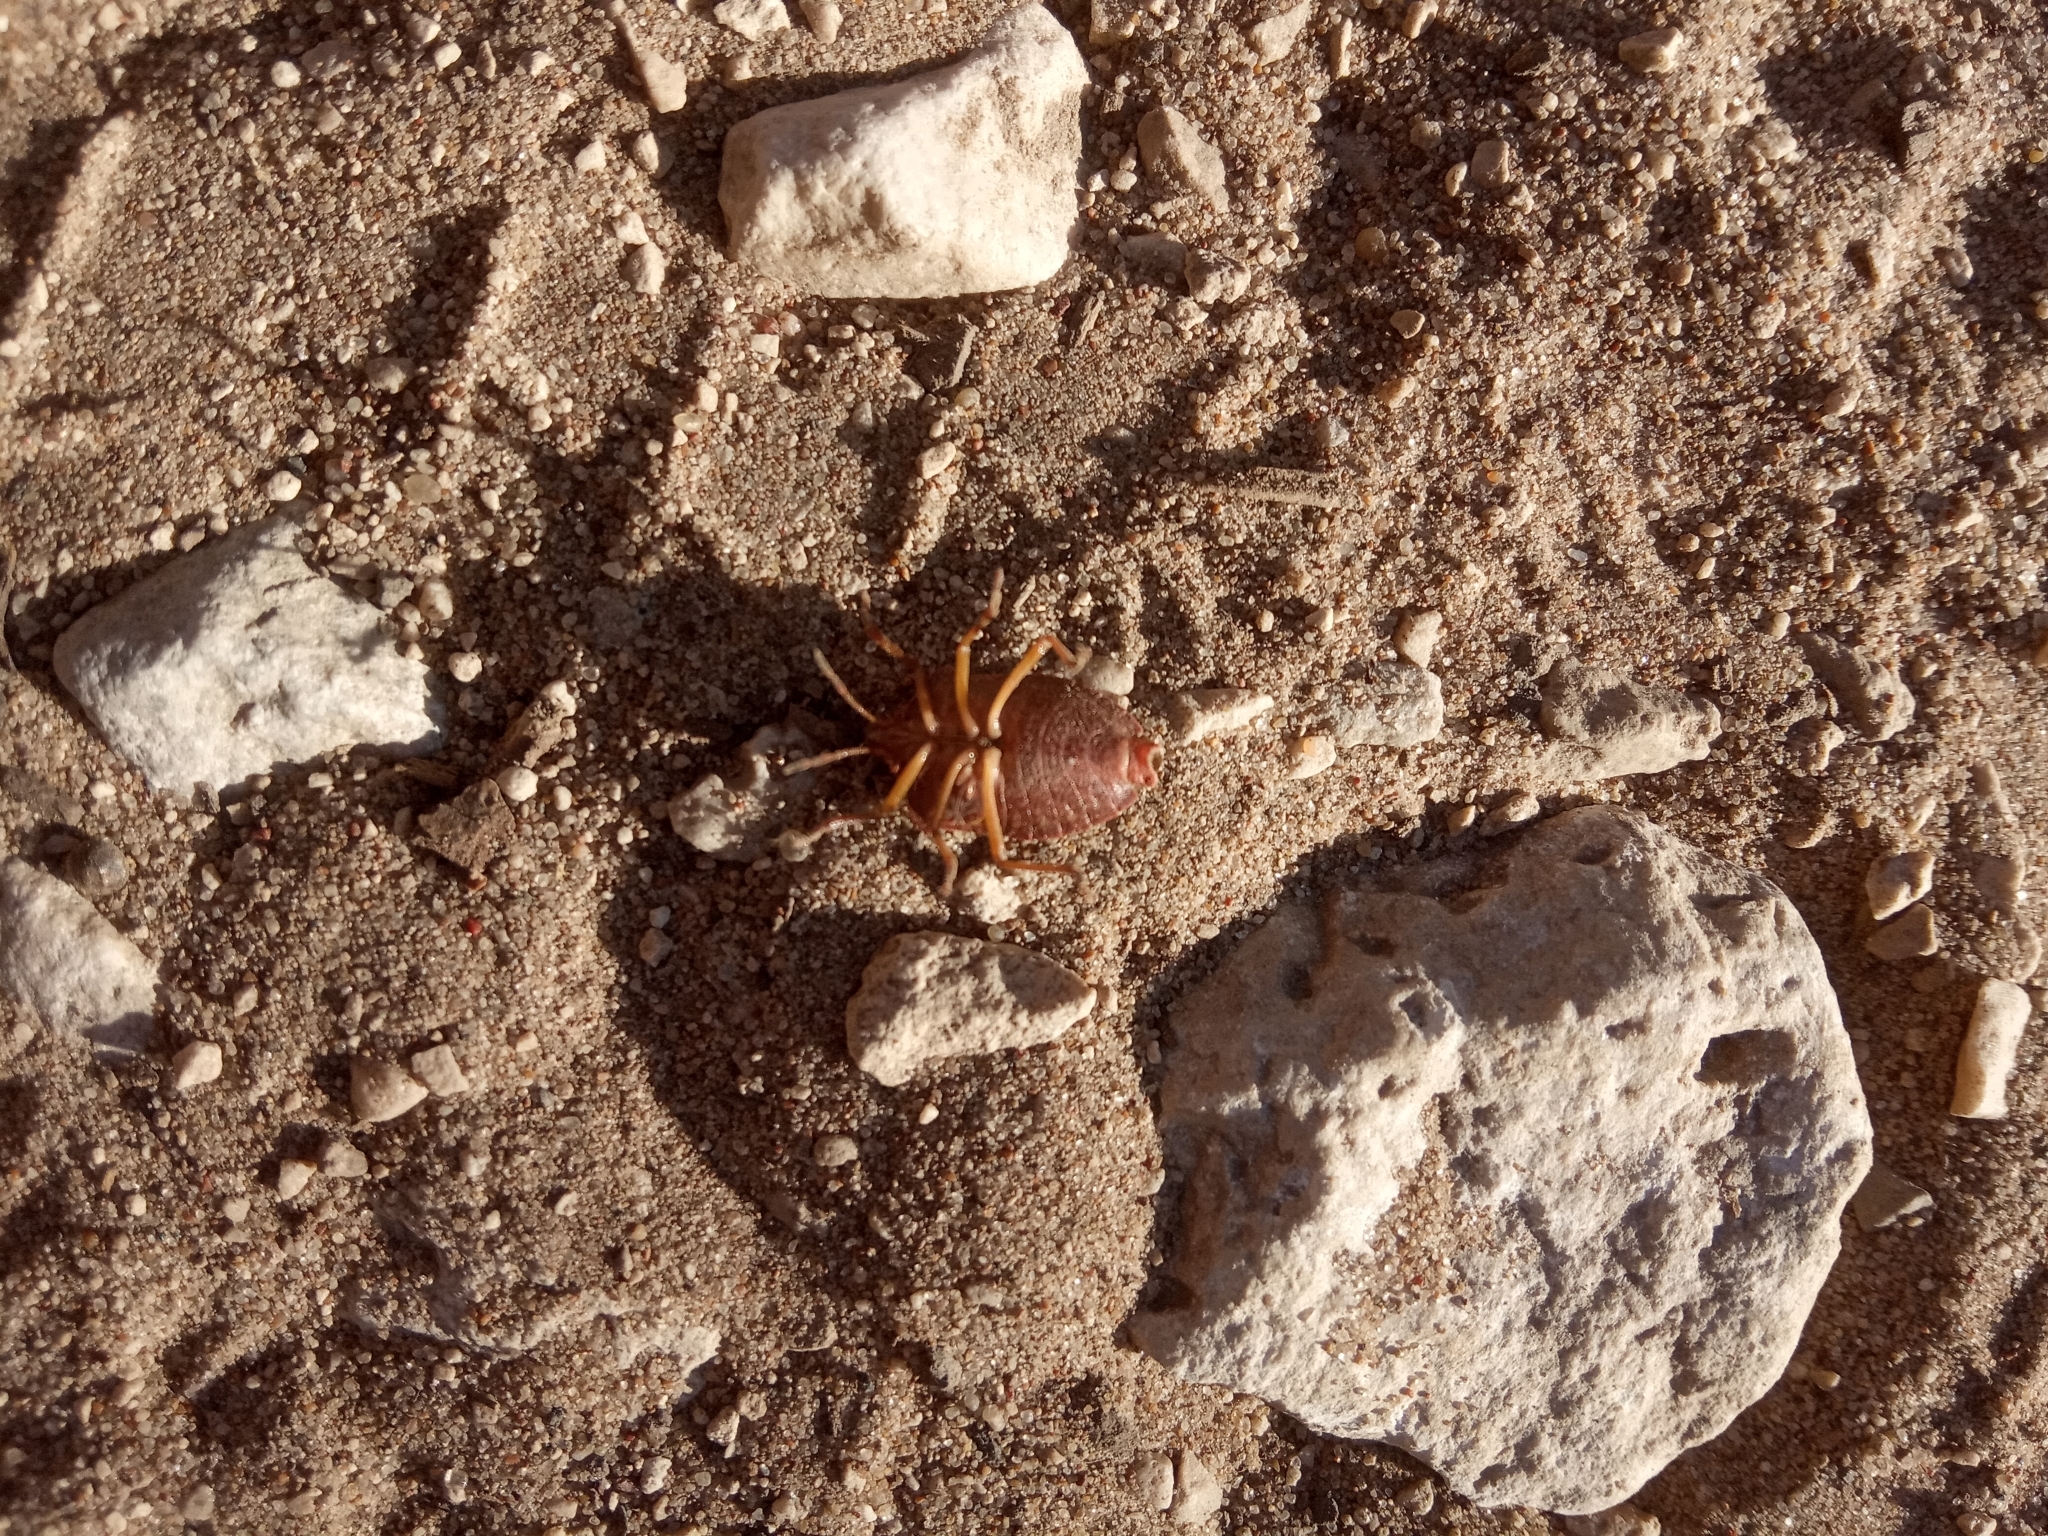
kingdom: Animalia
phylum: Arthropoda
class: Insecta
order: Hemiptera
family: Pentatomidae
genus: Palomena
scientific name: Palomena prasina
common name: Green shieldbug
